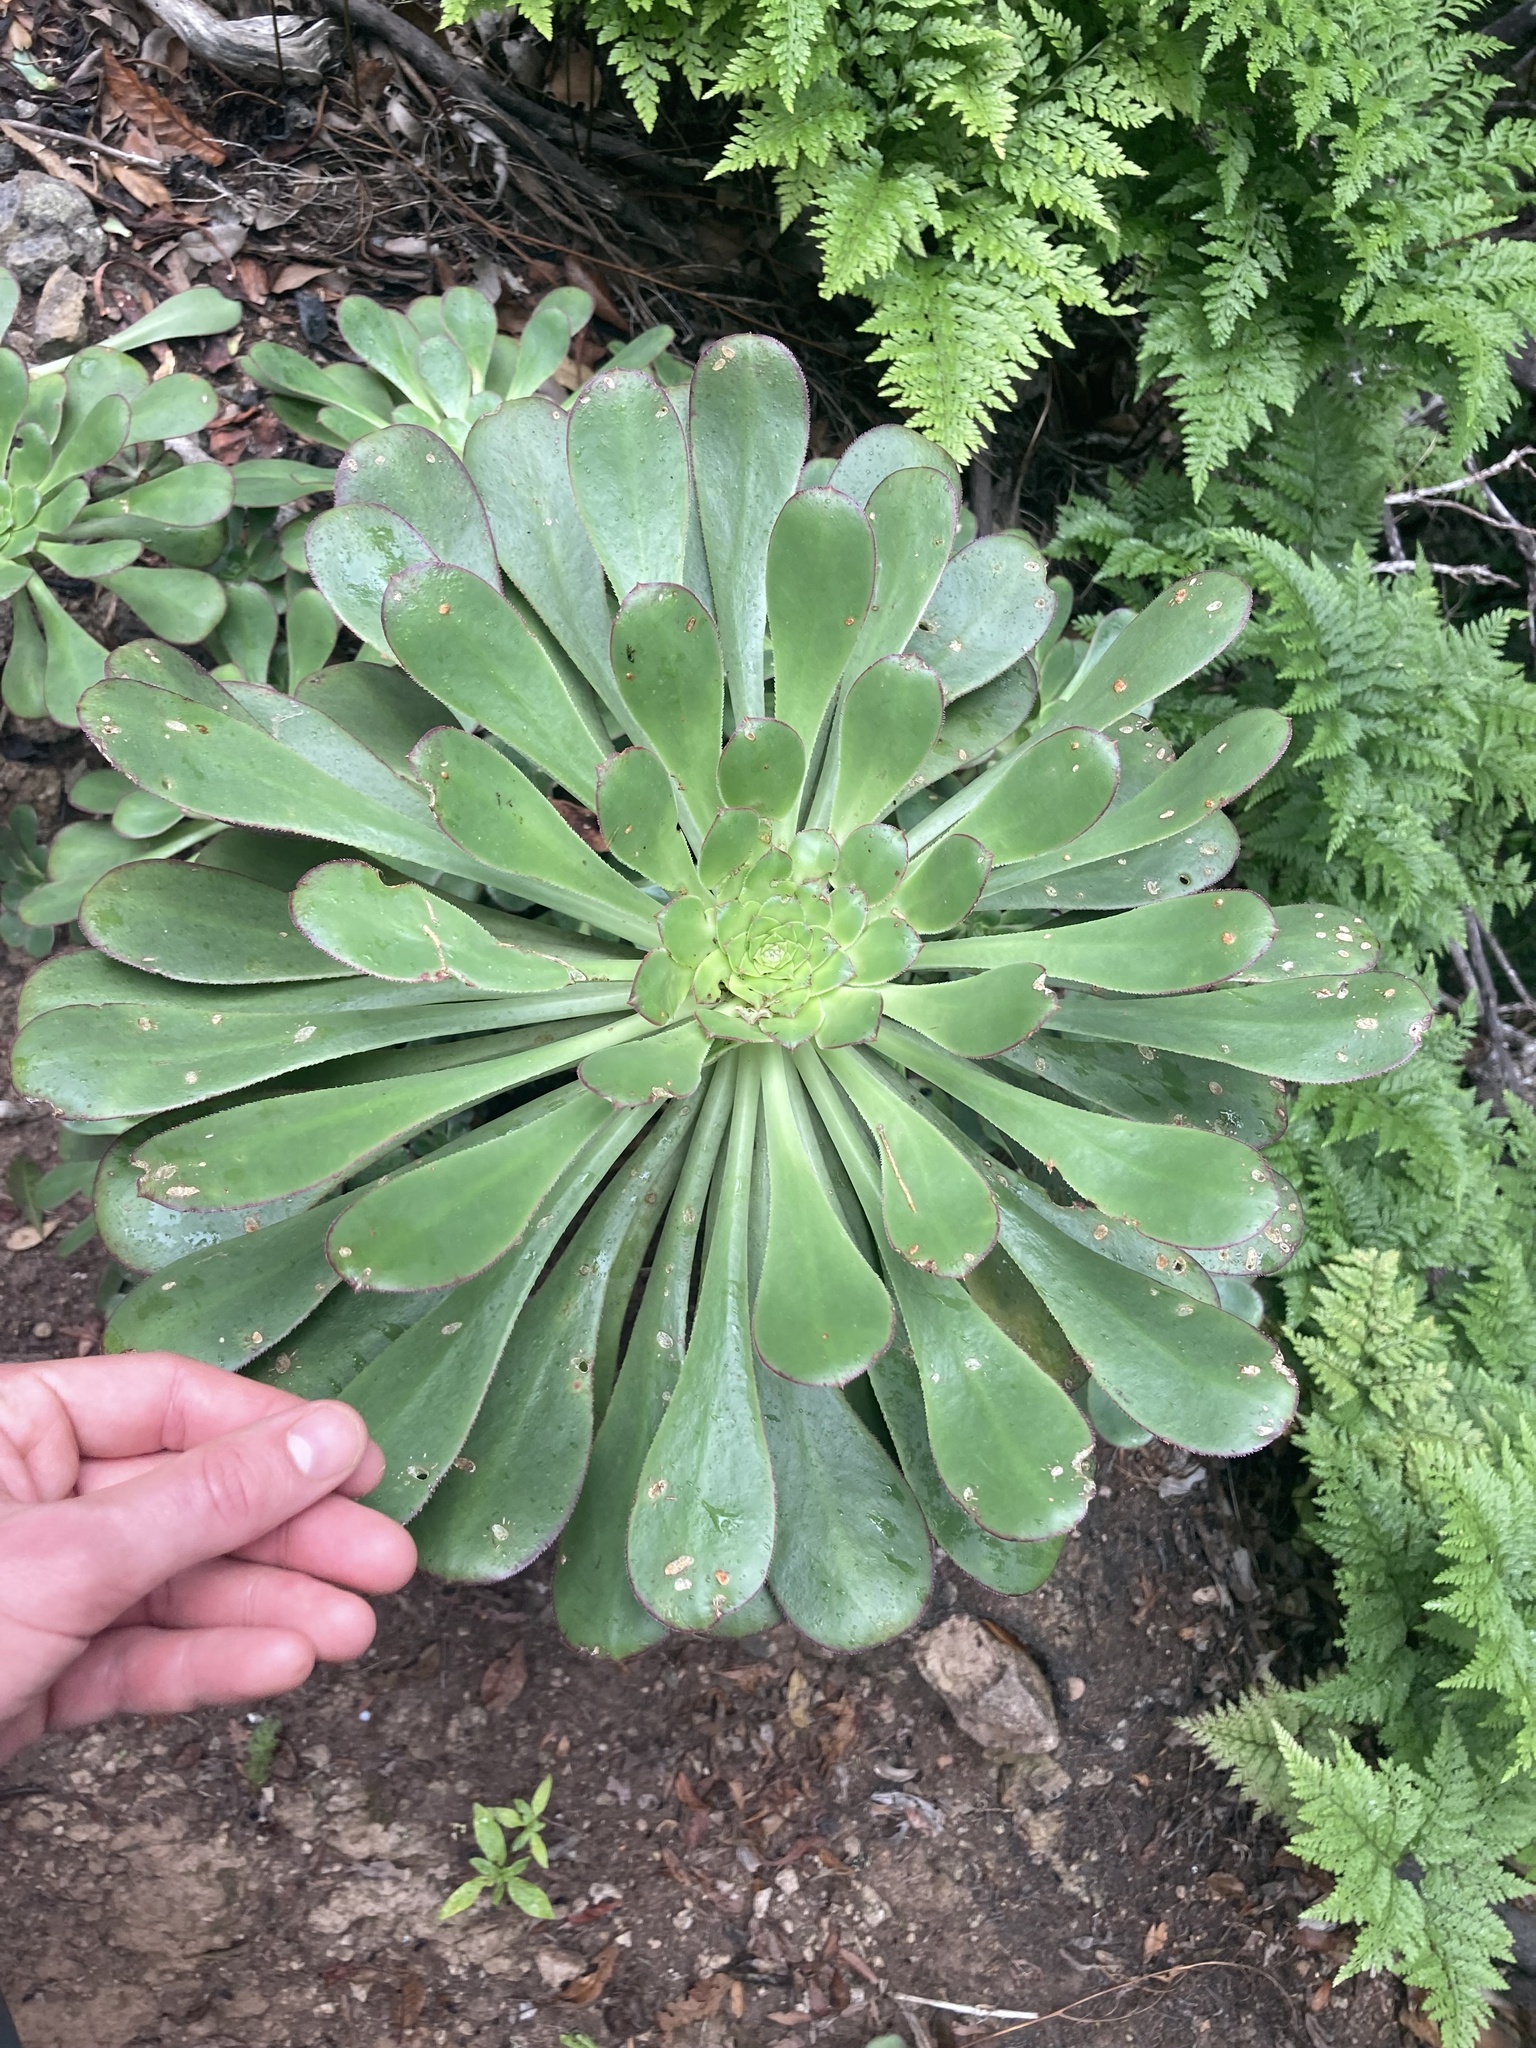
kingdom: Plantae
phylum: Tracheophyta
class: Magnoliopsida
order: Saxifragales
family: Crassulaceae
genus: Aeonium
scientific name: Aeonium ciliatum
